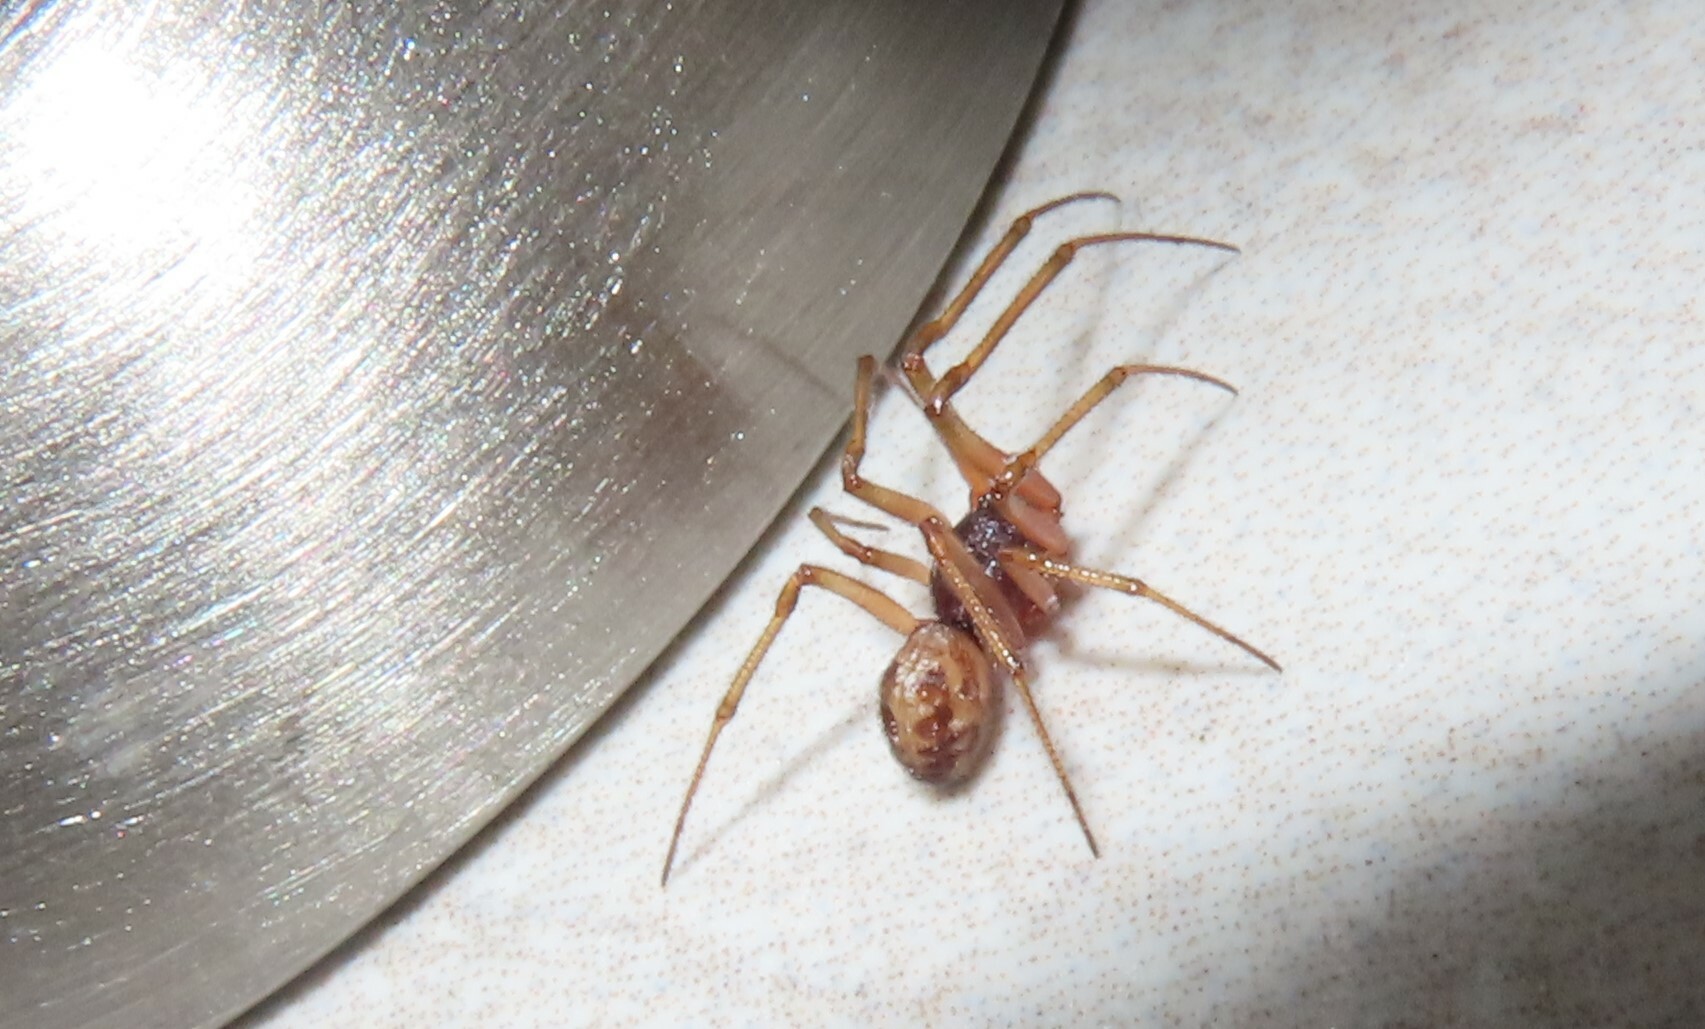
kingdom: Animalia
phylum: Arthropoda
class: Arachnida
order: Araneae
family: Theridiidae
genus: Steatoda
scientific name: Steatoda triangulosa
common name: Triangulate bud spider
